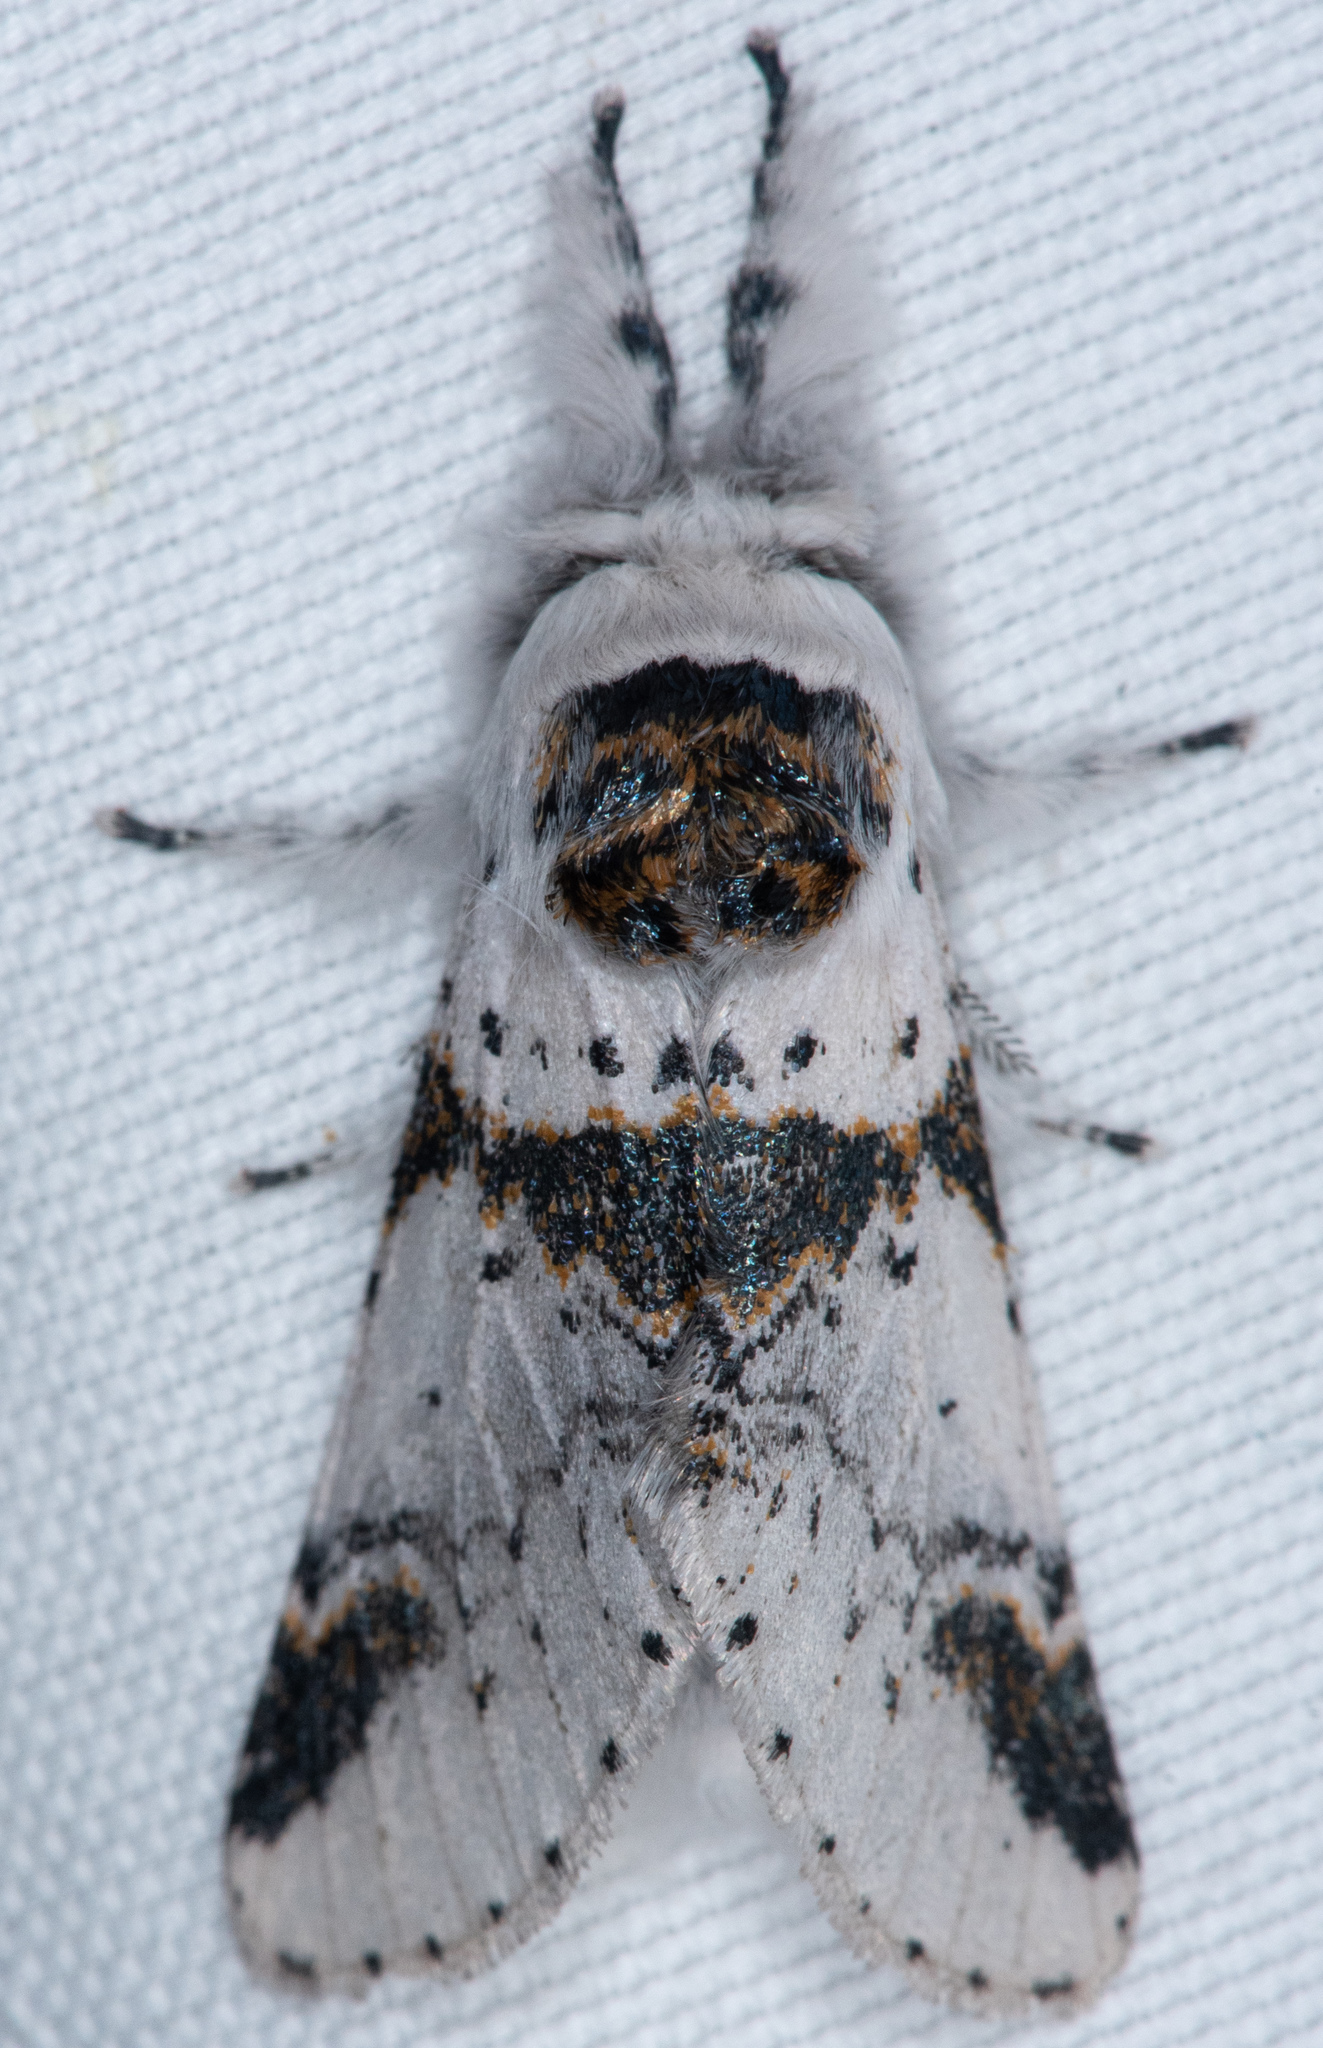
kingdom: Animalia
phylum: Arthropoda
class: Insecta
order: Lepidoptera
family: Notodontidae
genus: Furcula
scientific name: Furcula scolopendrina
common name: Zigzag furcula moth
